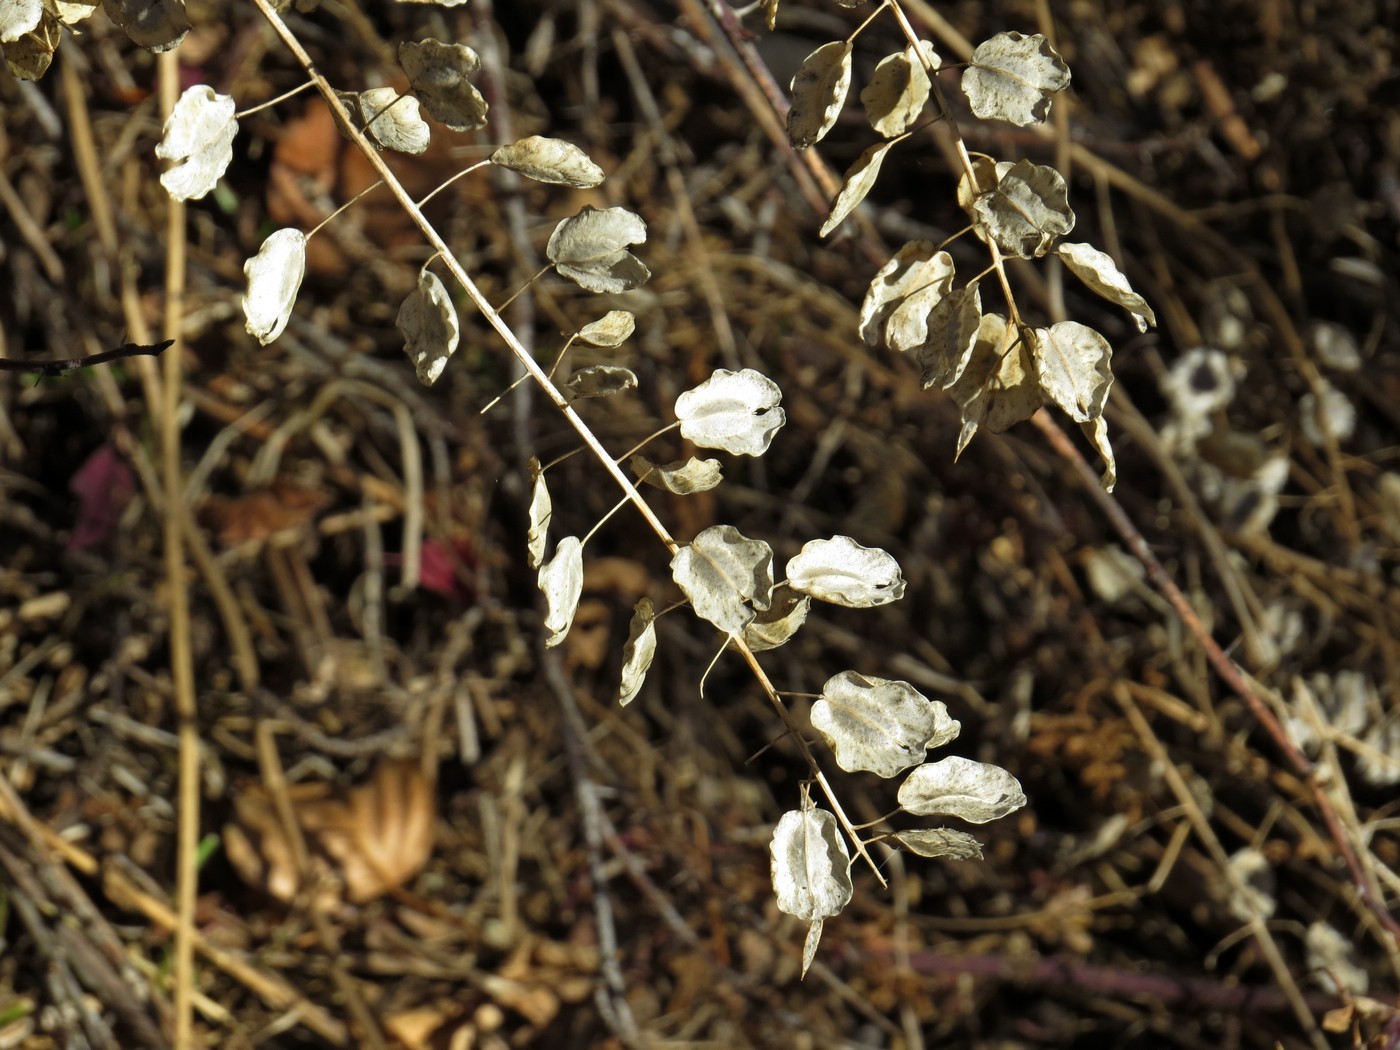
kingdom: Plantae
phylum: Tracheophyta
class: Magnoliopsida
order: Brassicales
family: Brassicaceae
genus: Thlaspi
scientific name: Thlaspi arvense
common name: Field pennycress
